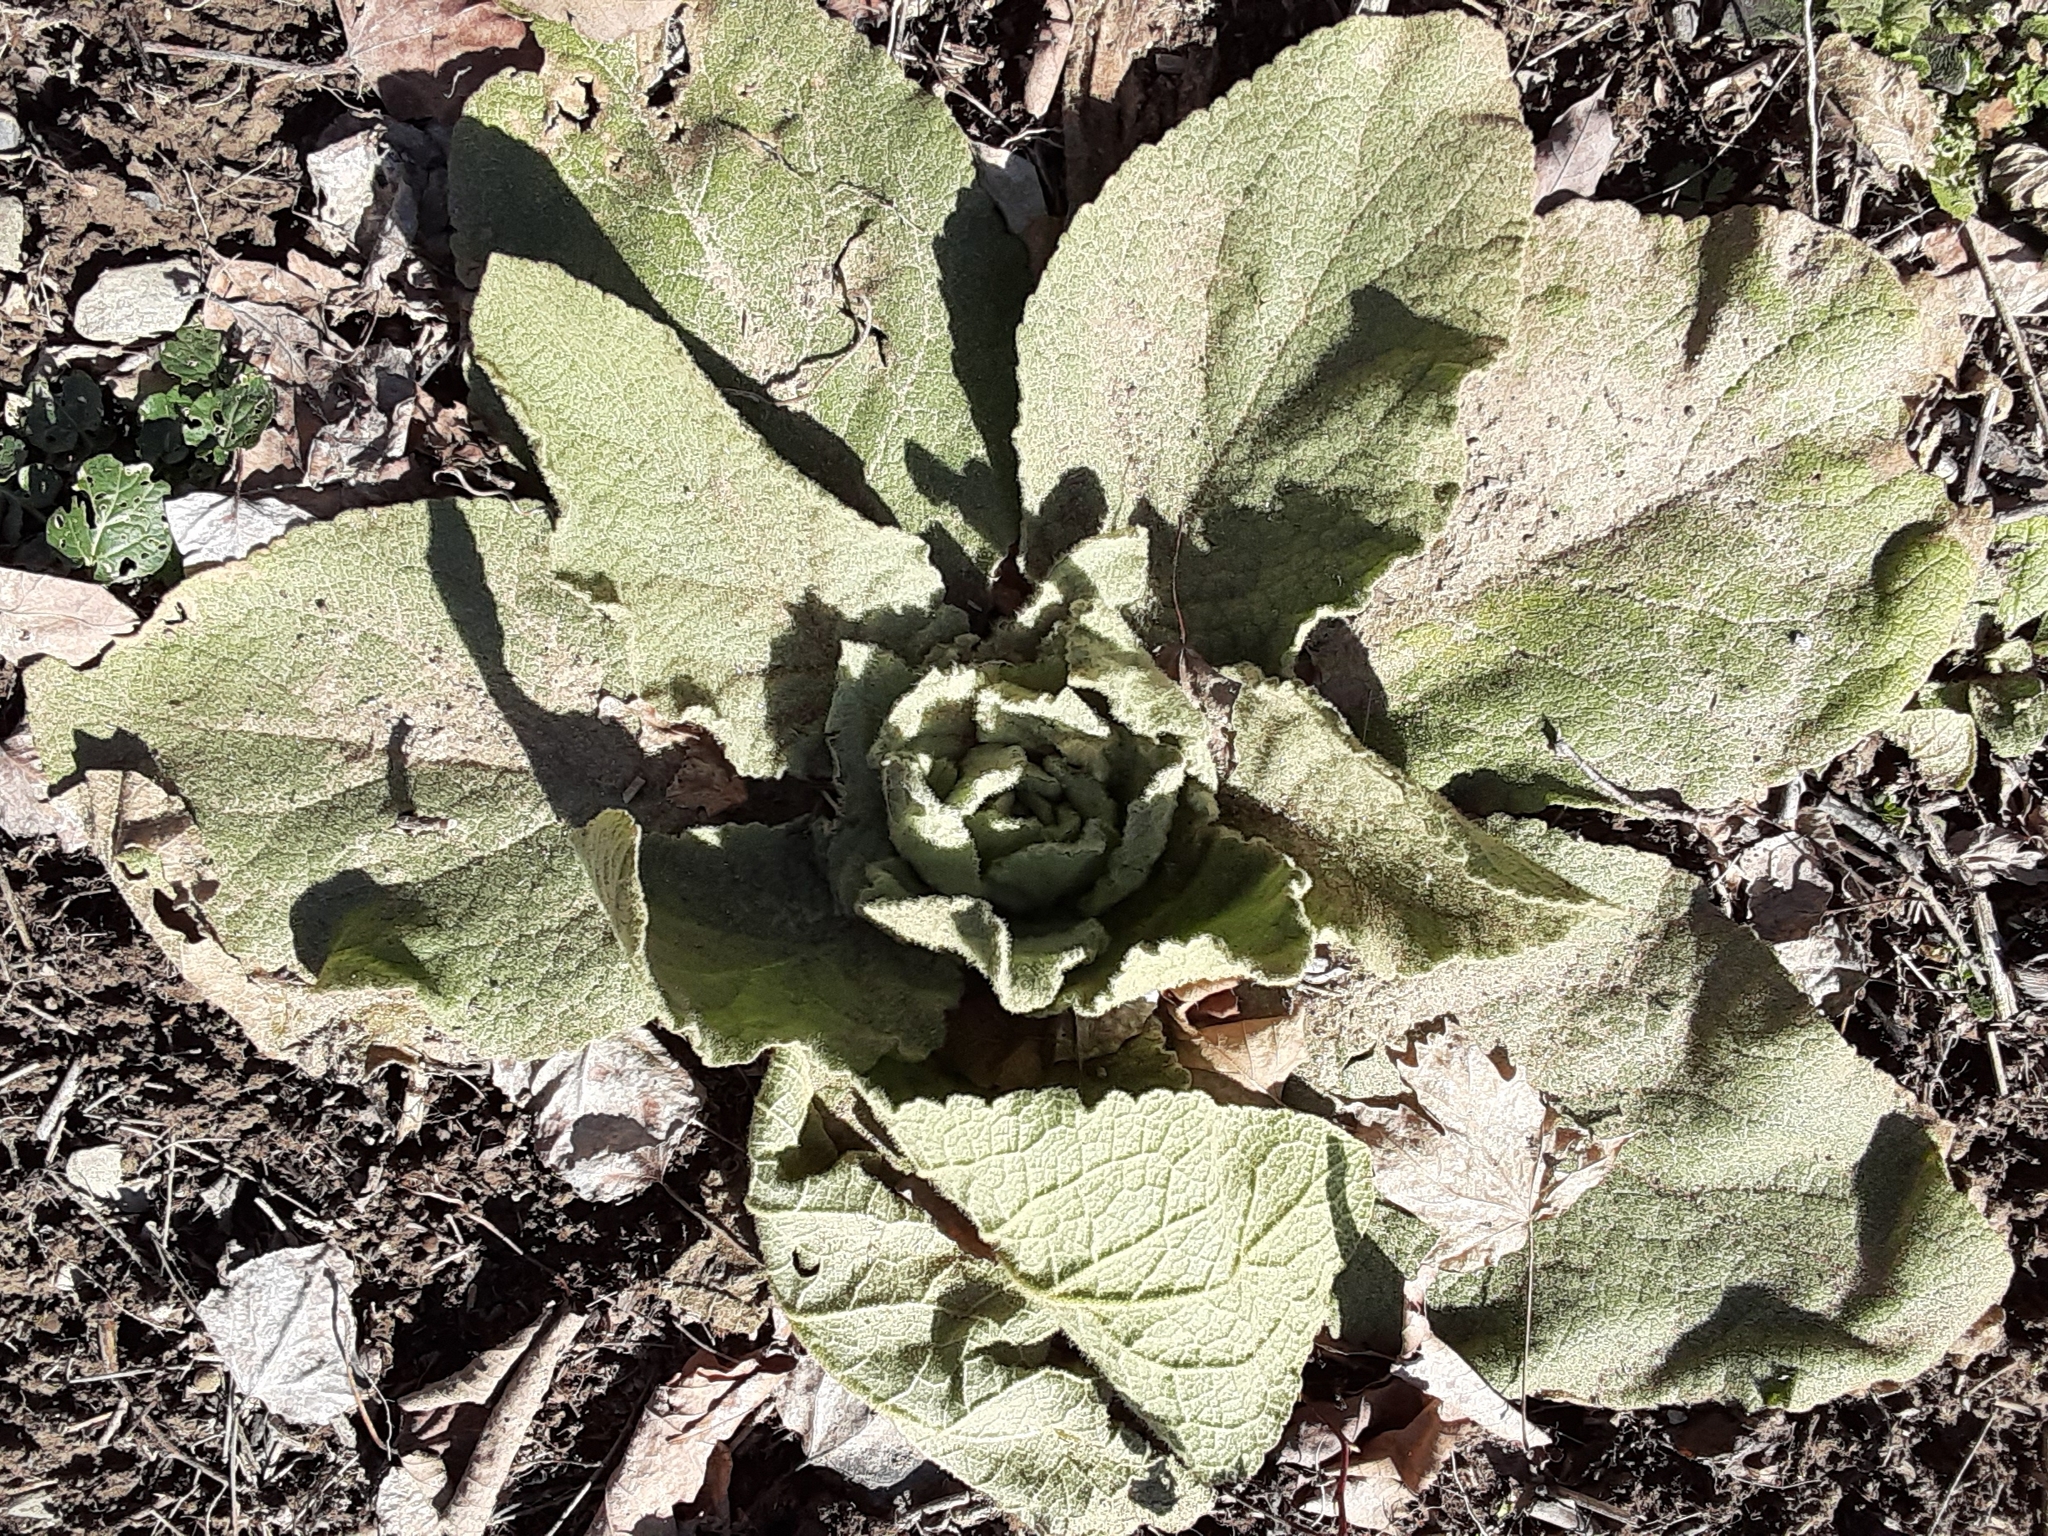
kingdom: Plantae
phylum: Tracheophyta
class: Magnoliopsida
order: Lamiales
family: Scrophulariaceae
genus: Verbascum
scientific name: Verbascum thapsus
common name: Common mullein
